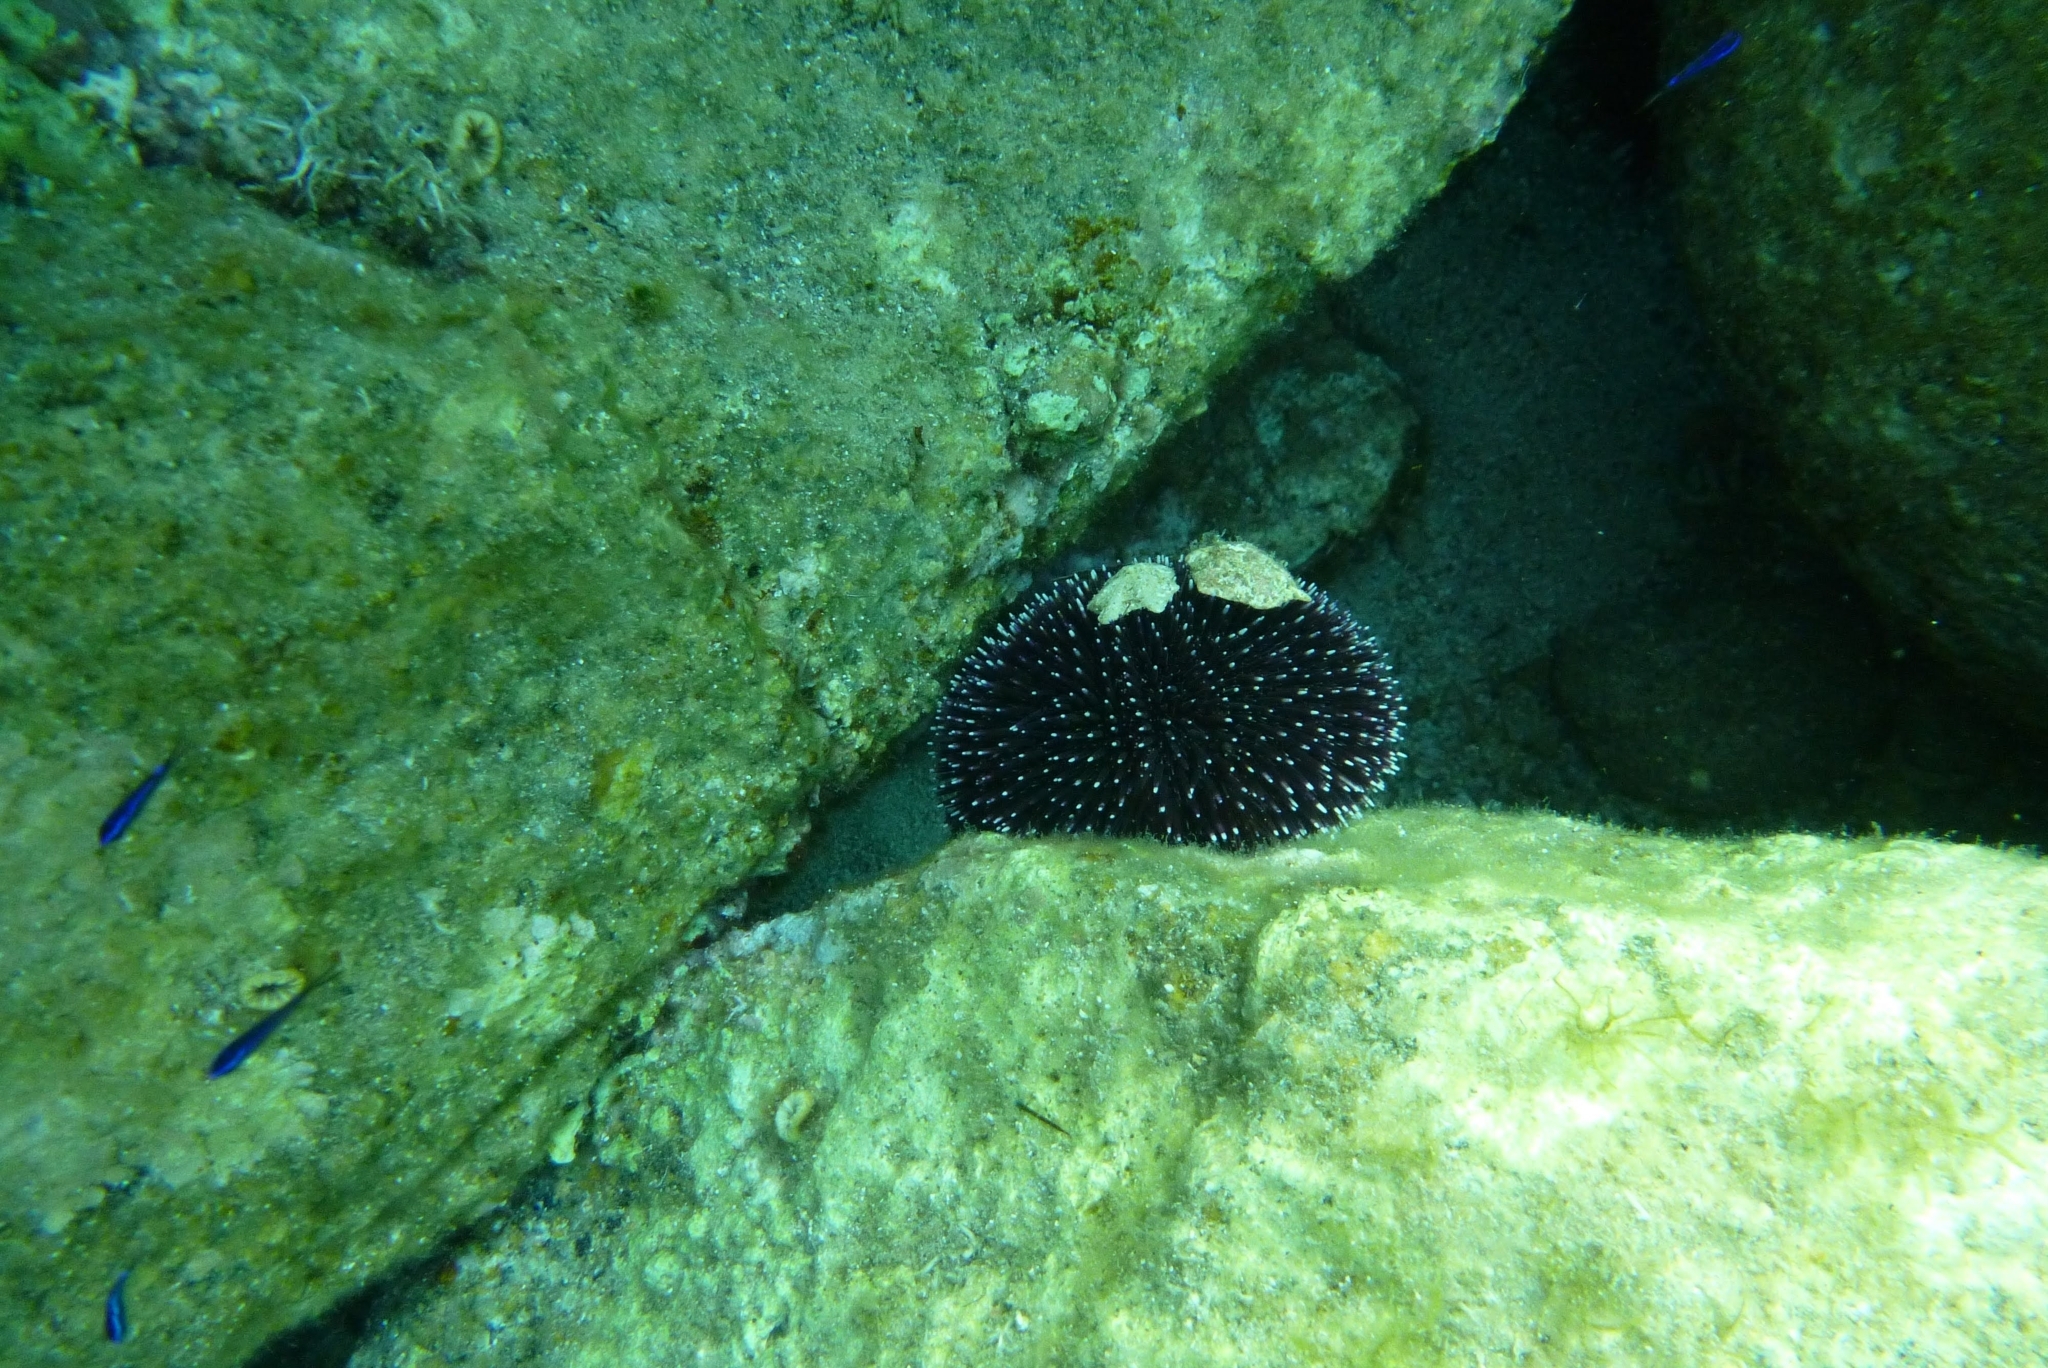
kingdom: Animalia
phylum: Echinodermata
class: Echinoidea
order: Camarodonta
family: Toxopneustidae
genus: Sphaerechinus
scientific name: Sphaerechinus granularis
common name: Violet sea urchin
